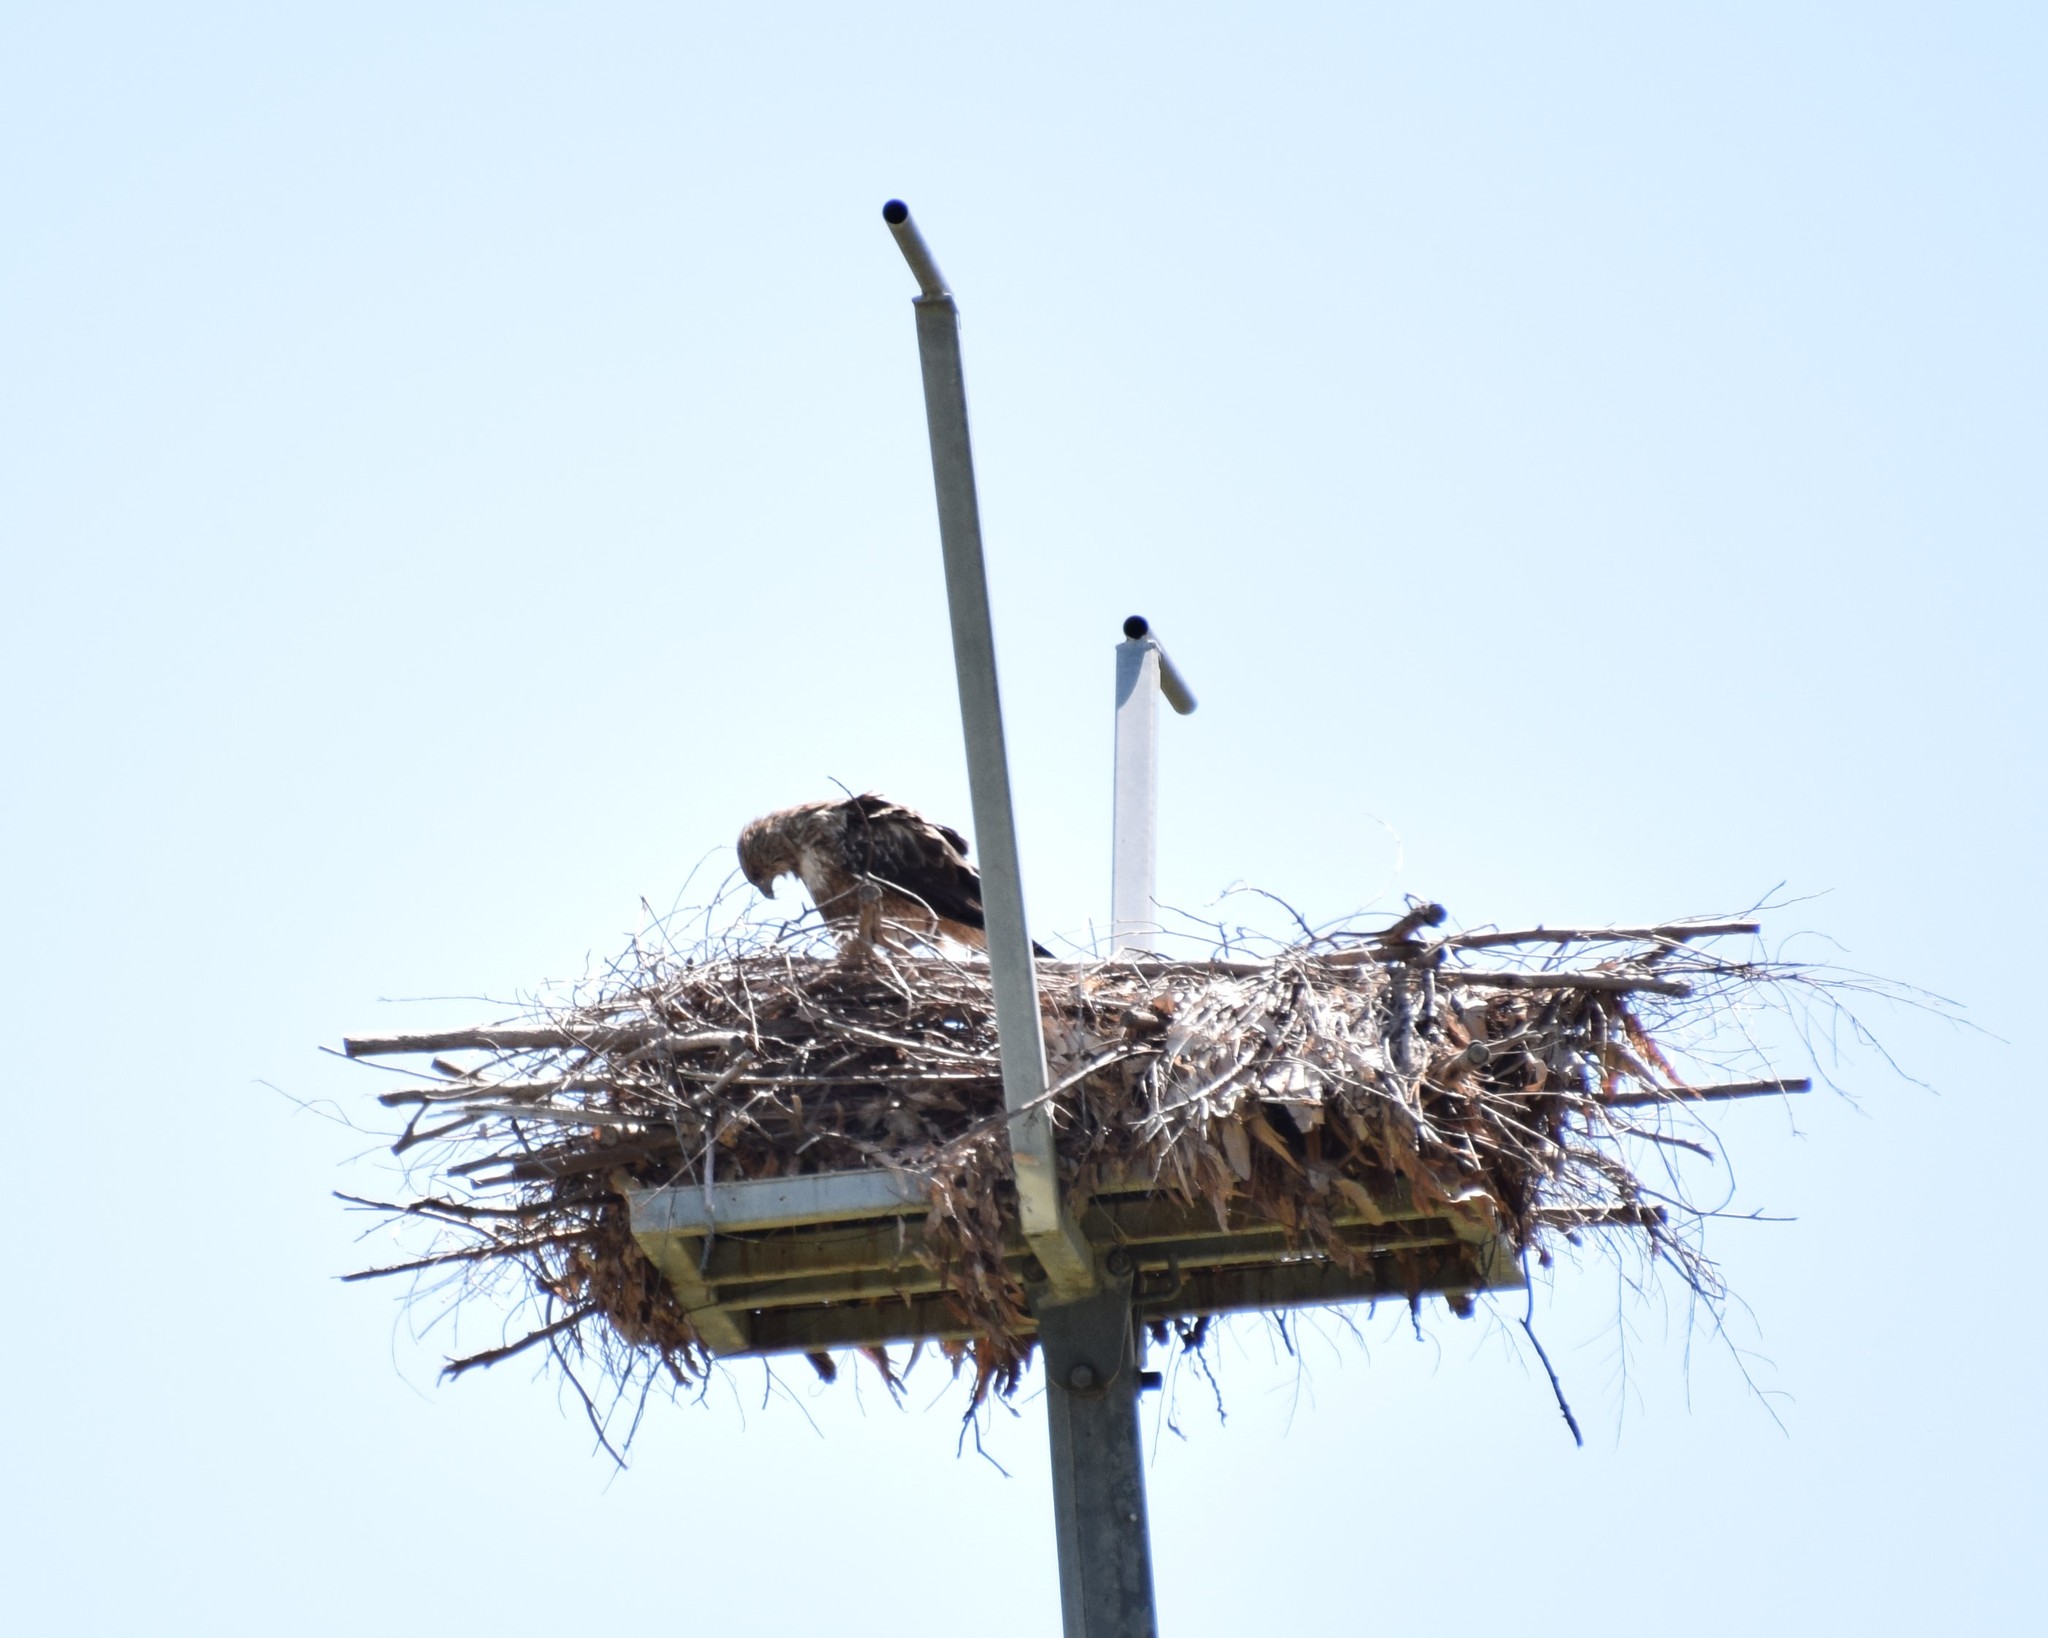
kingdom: Animalia
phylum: Chordata
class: Aves
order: Accipitriformes
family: Accipitridae
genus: Haliastur
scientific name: Haliastur sphenurus
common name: Whistling kite
